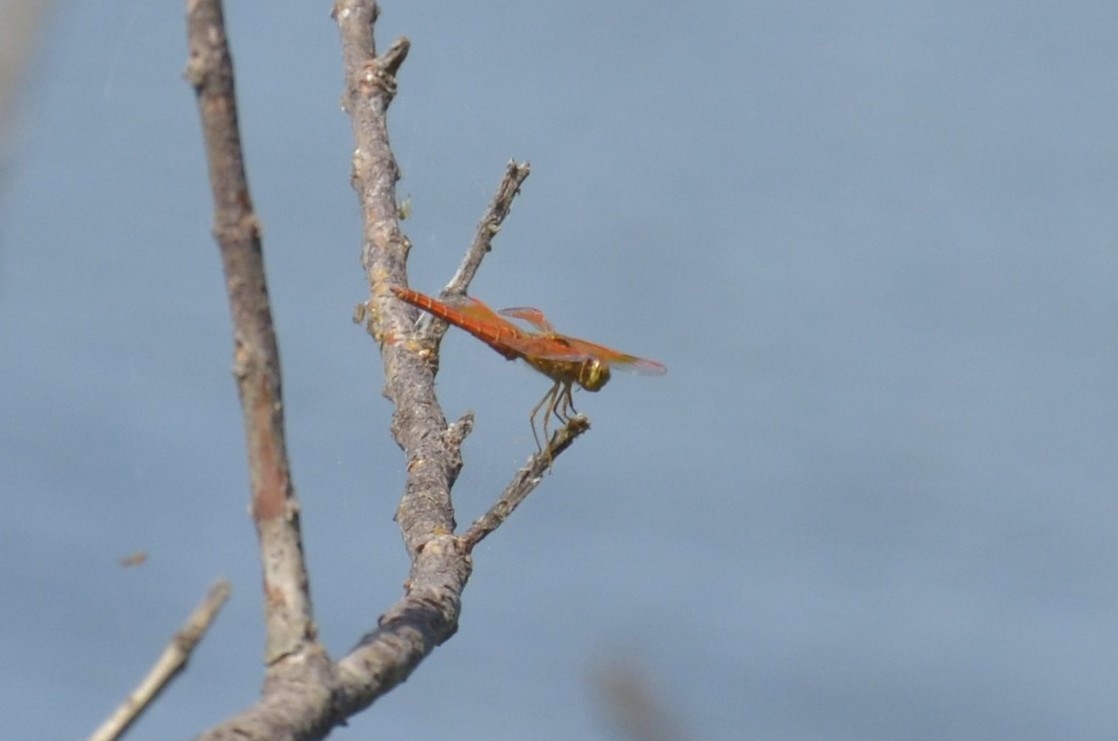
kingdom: Animalia
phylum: Arthropoda
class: Insecta
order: Odonata
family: Libellulidae
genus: Brachythemis
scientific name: Brachythemis contaminata
